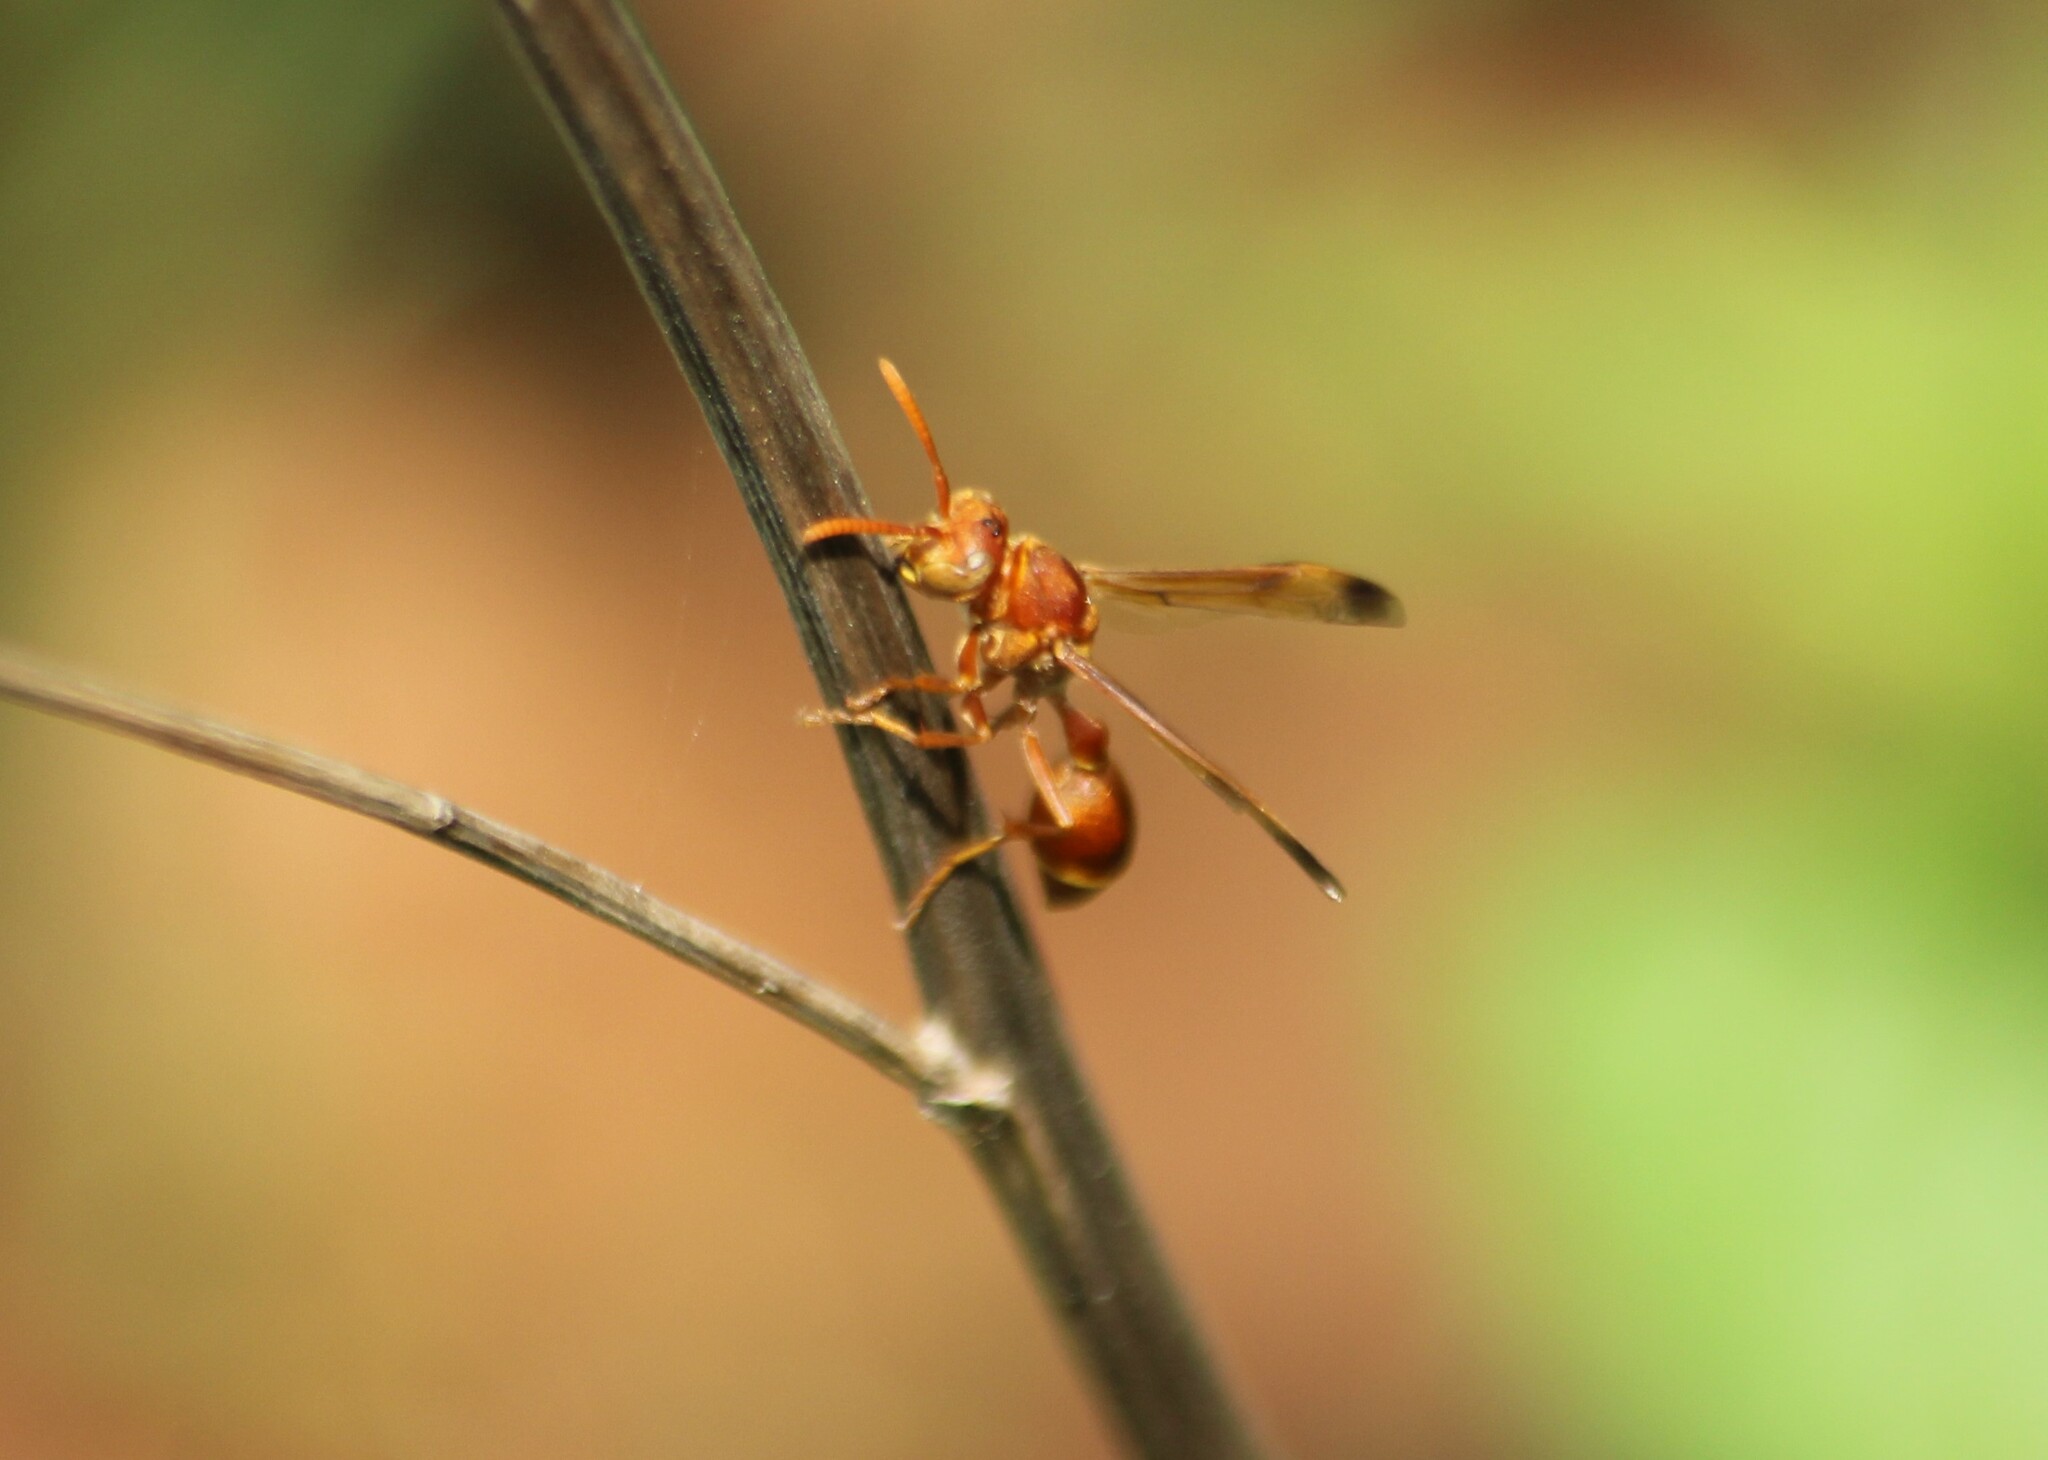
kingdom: Animalia
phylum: Arthropoda
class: Insecta
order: Hymenoptera
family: Vespidae
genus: Ropalidia
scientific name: Ropalidia marginata
